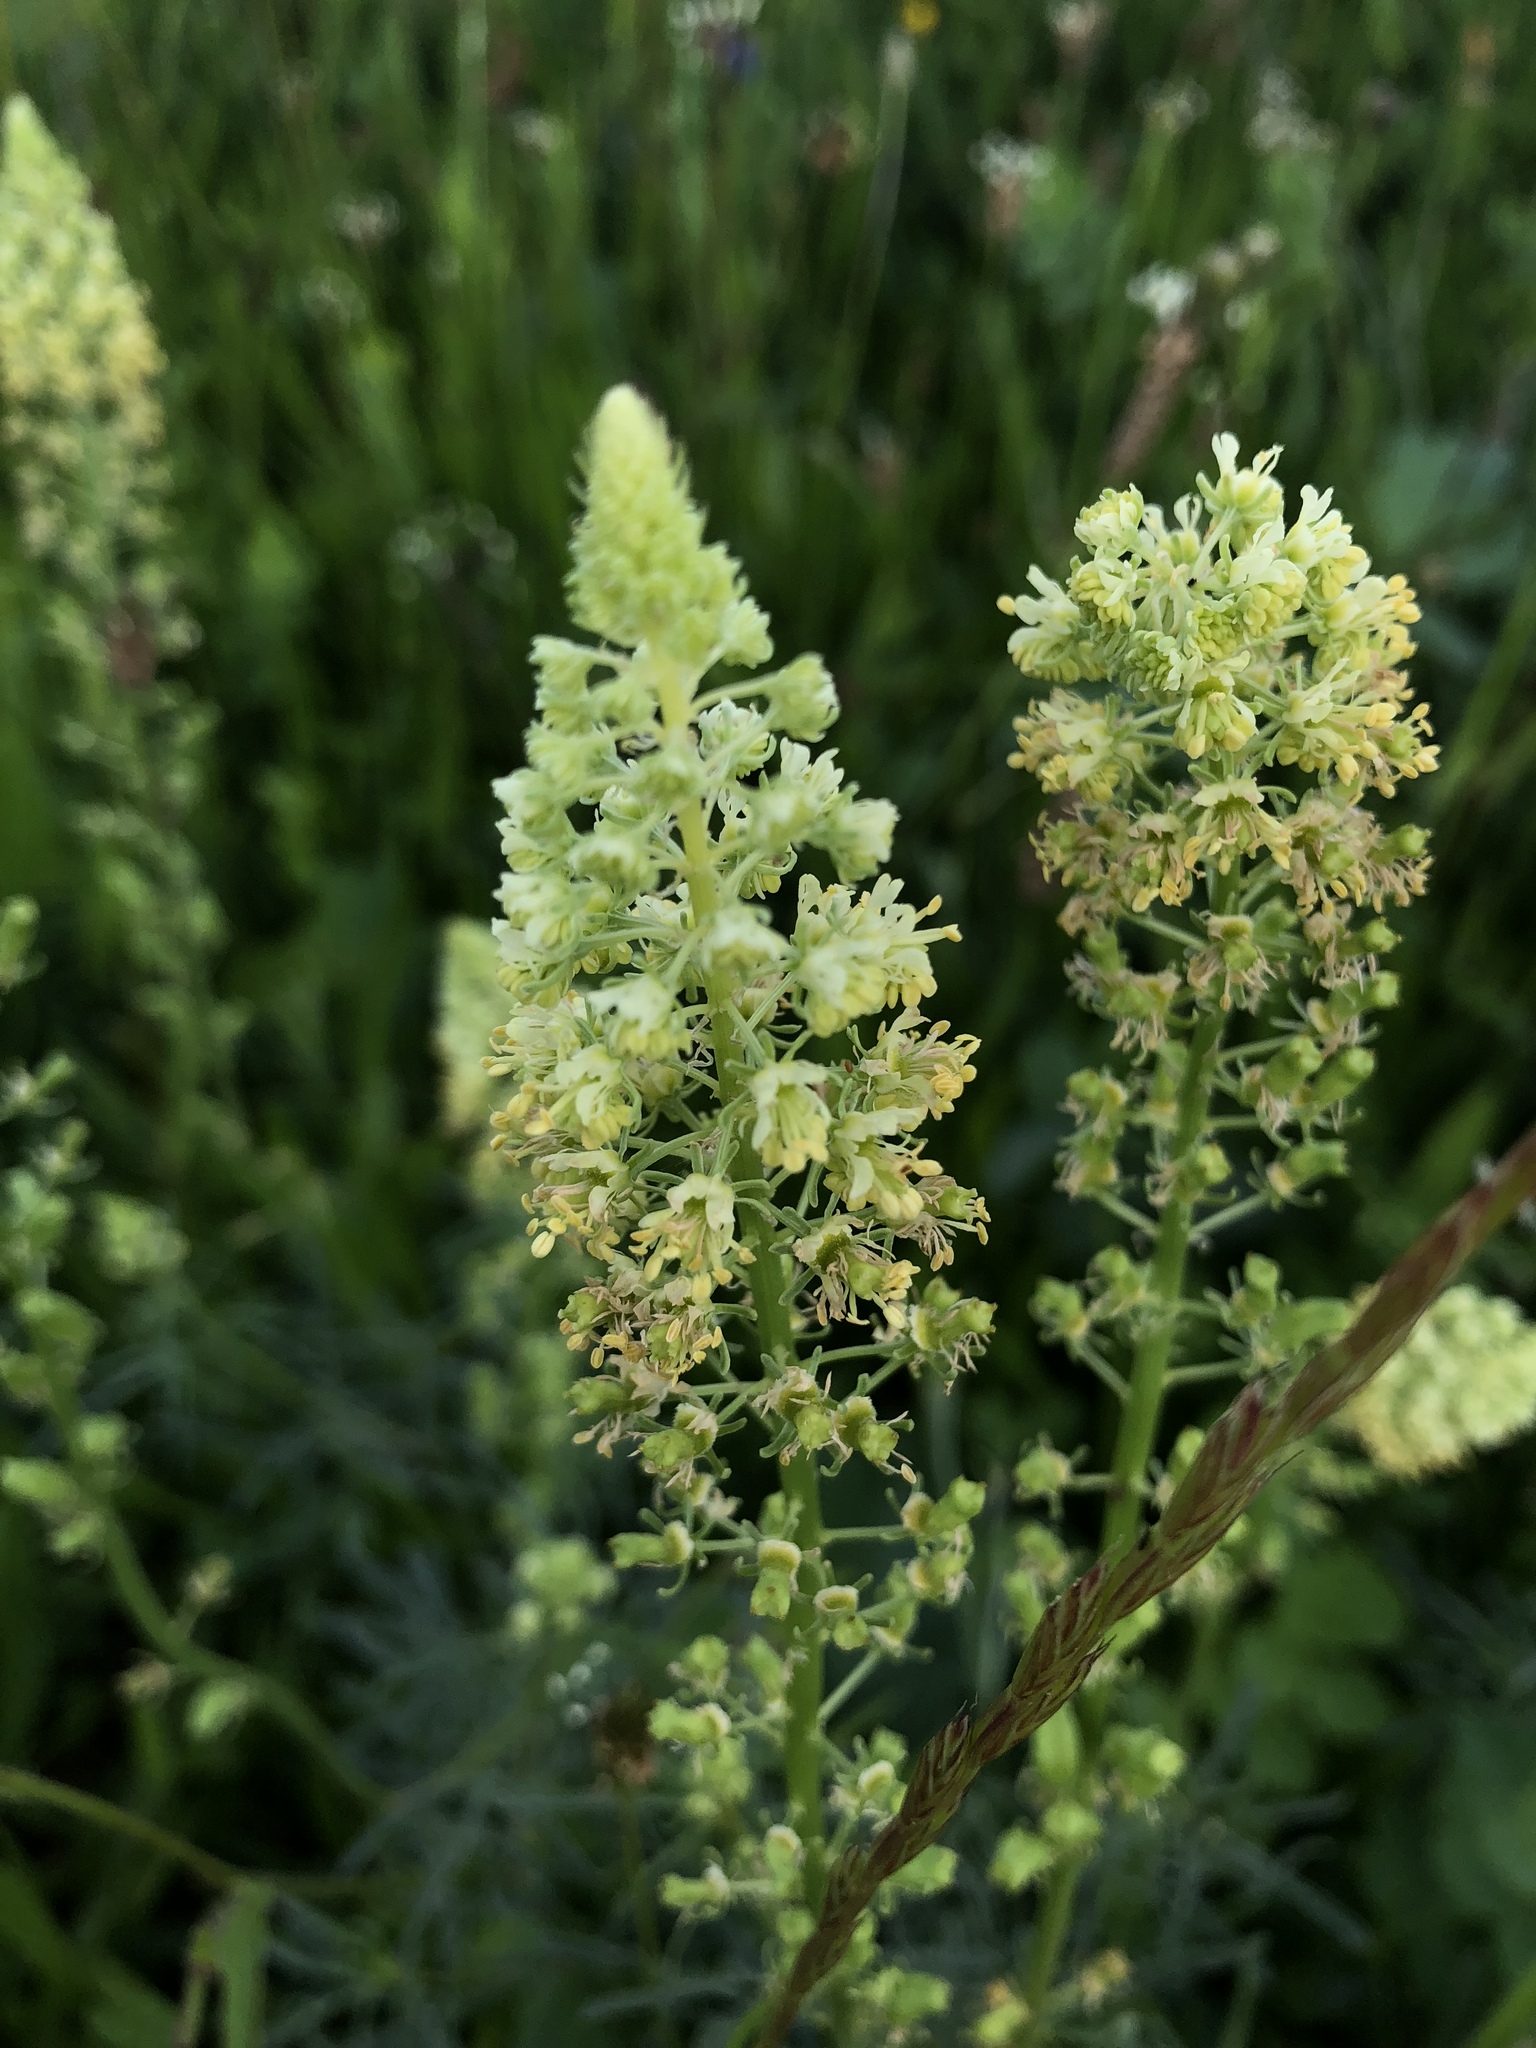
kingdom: Plantae
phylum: Tracheophyta
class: Magnoliopsida
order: Brassicales
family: Resedaceae
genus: Reseda
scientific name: Reseda lutea
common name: Wild mignonette
